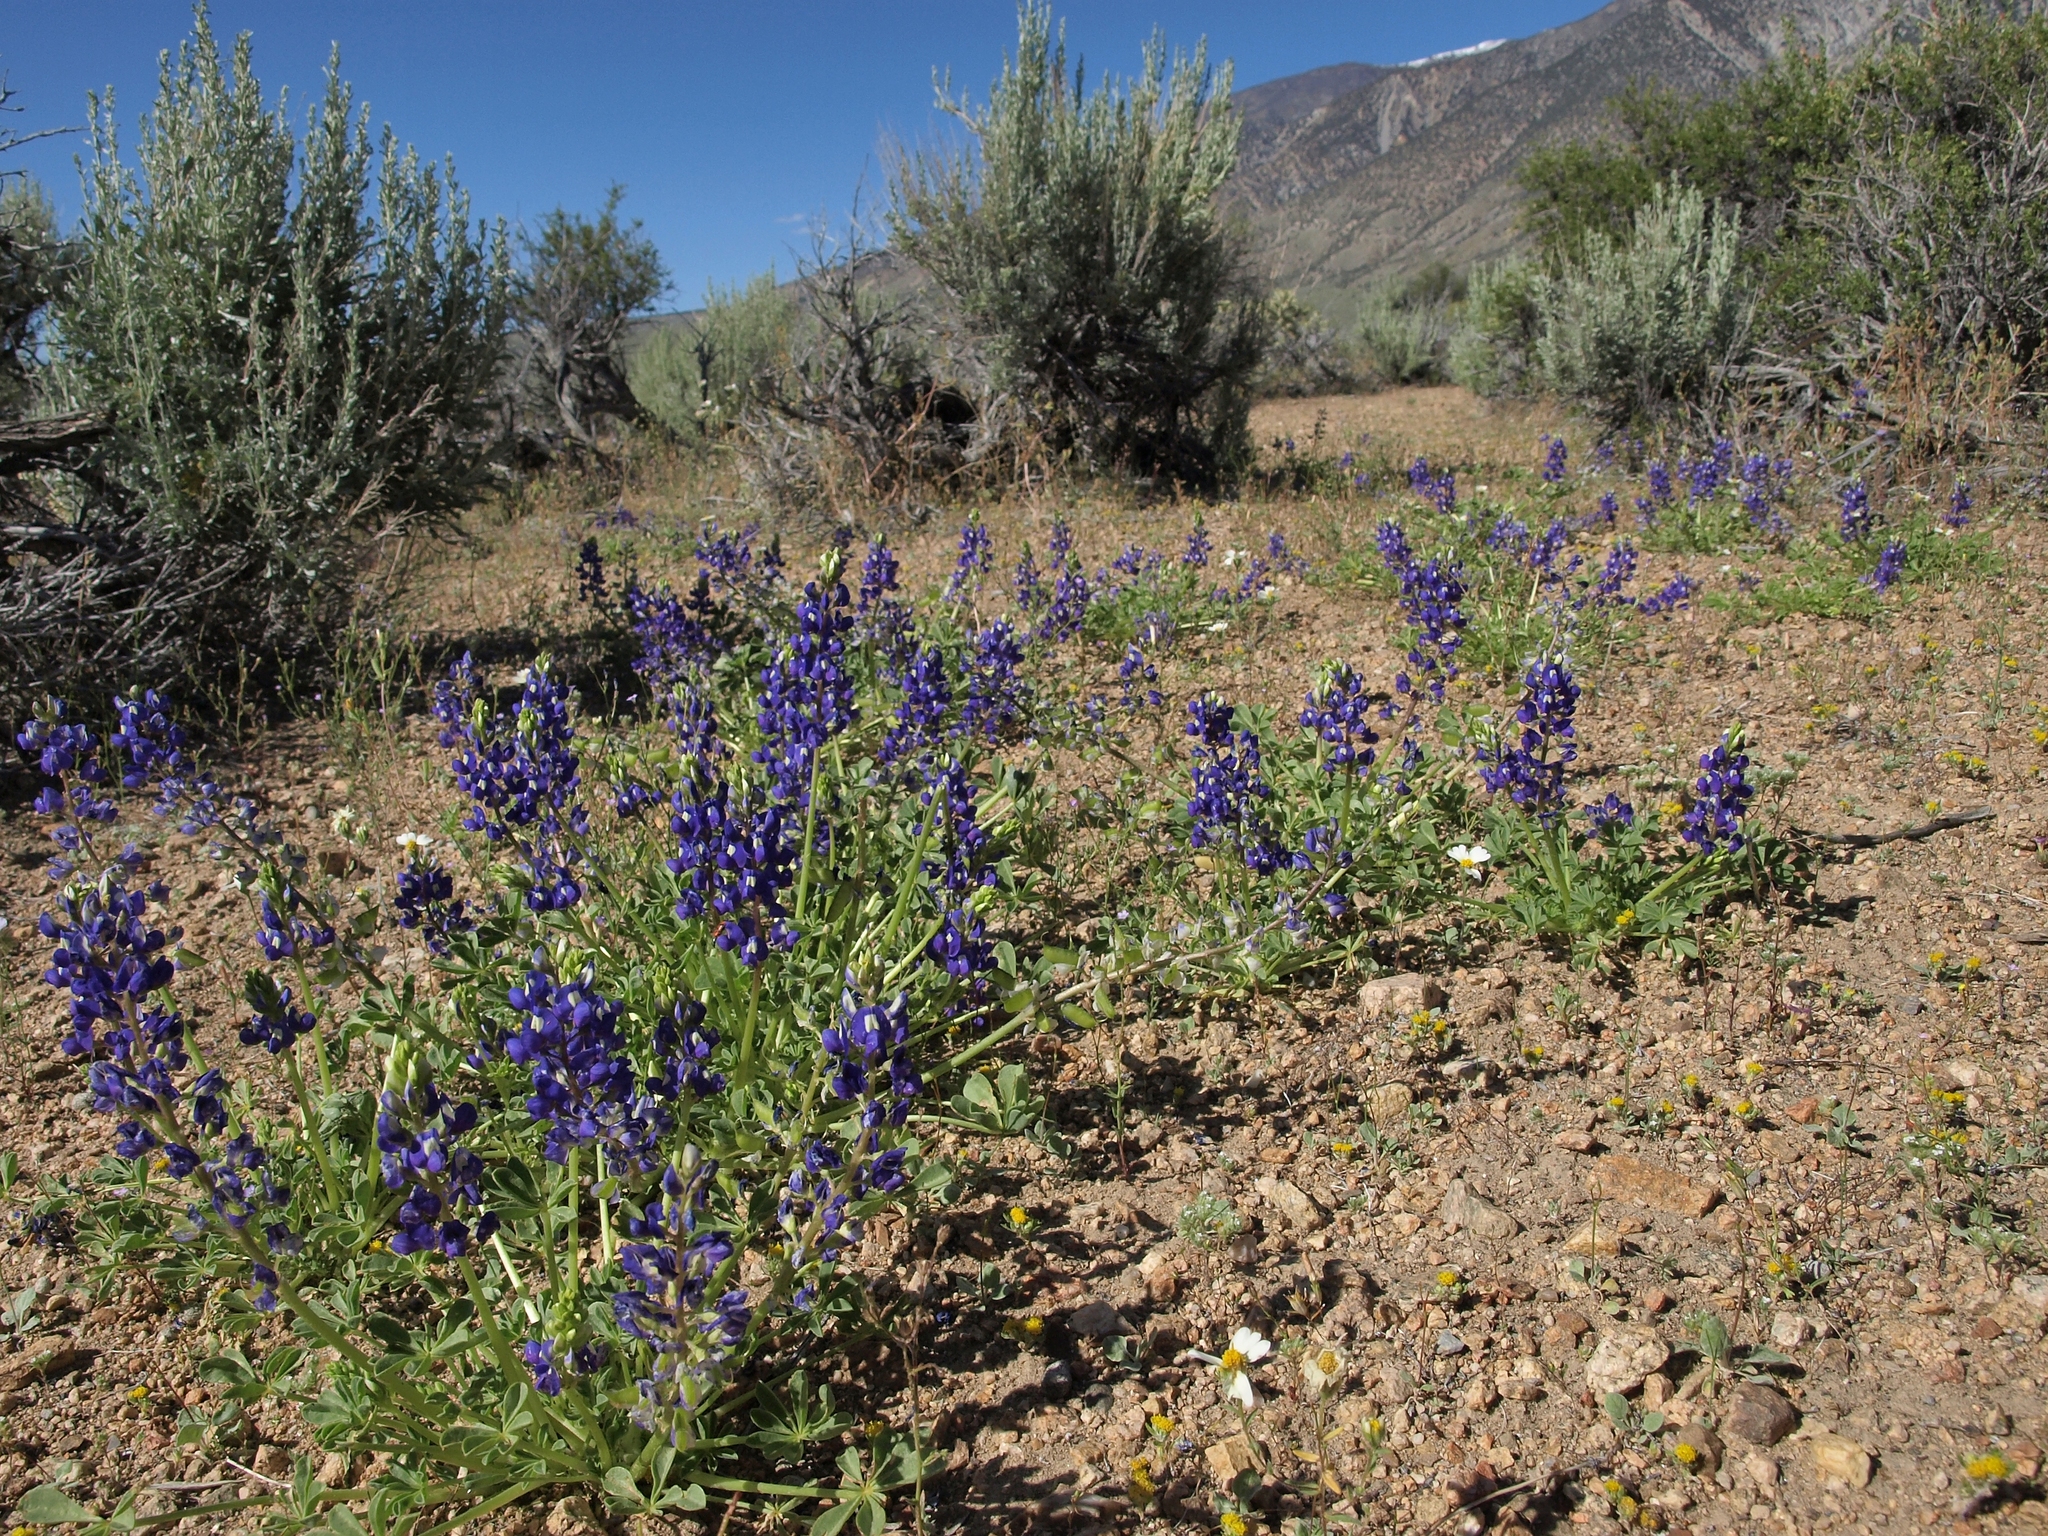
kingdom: Plantae
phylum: Tracheophyta
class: Magnoliopsida
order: Fabales
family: Fabaceae
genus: Lupinus
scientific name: Lupinus
